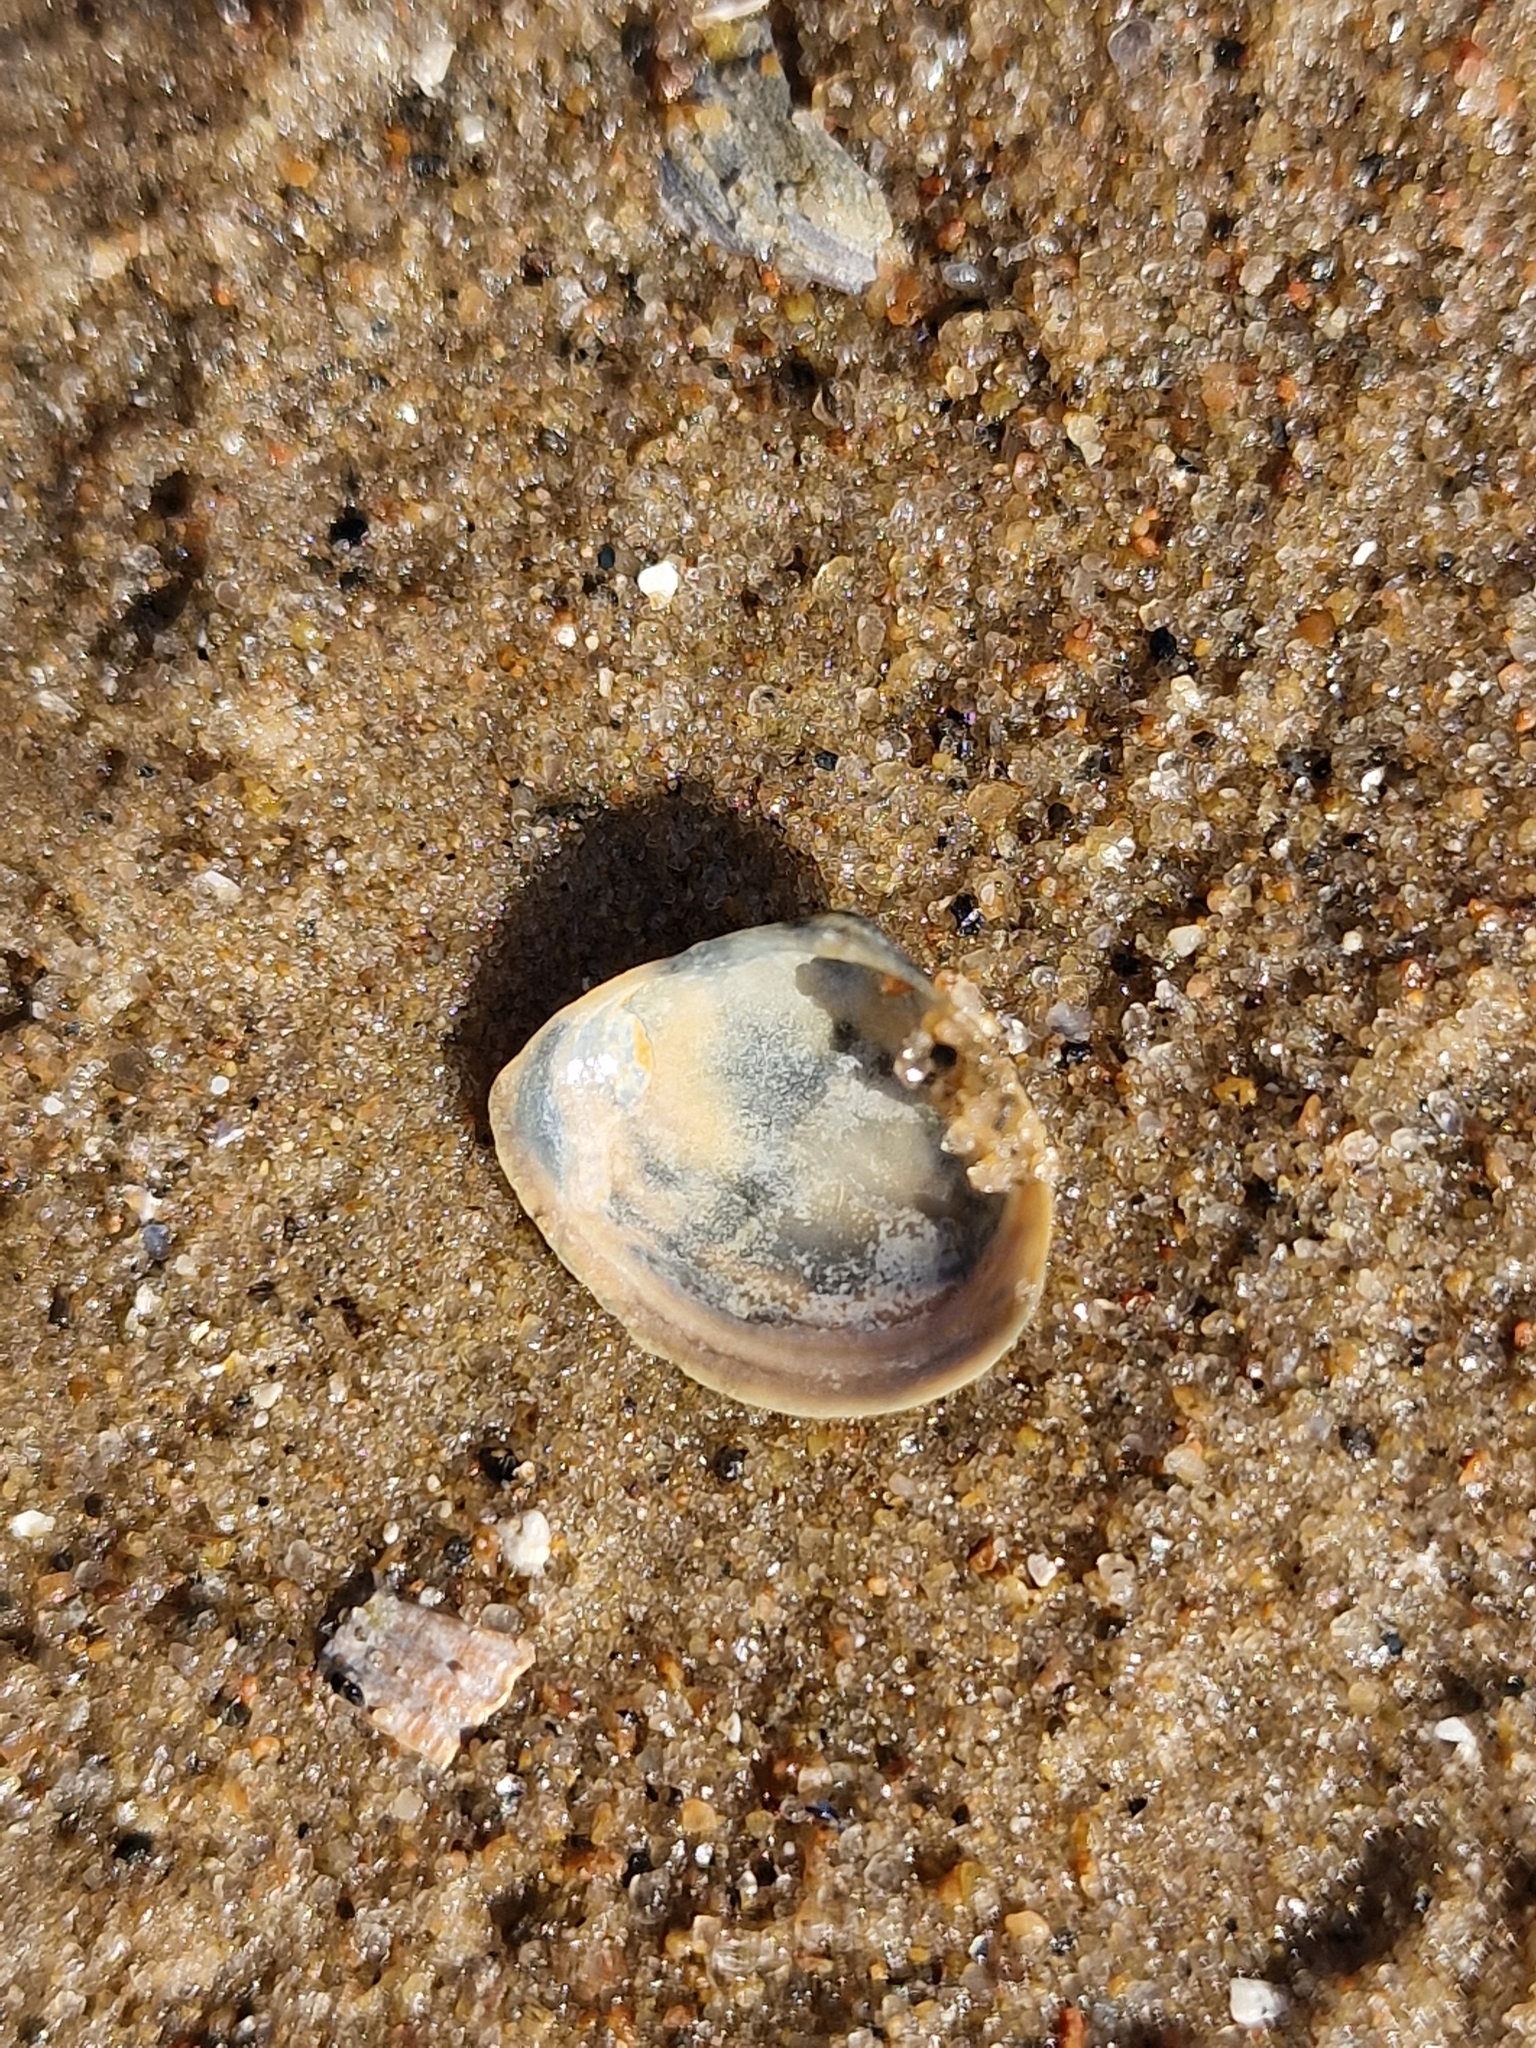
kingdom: Animalia
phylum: Mollusca
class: Bivalvia
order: Cardiida
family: Tellinidae
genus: Macoma
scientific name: Macoma balthica
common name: Baltic tellin
